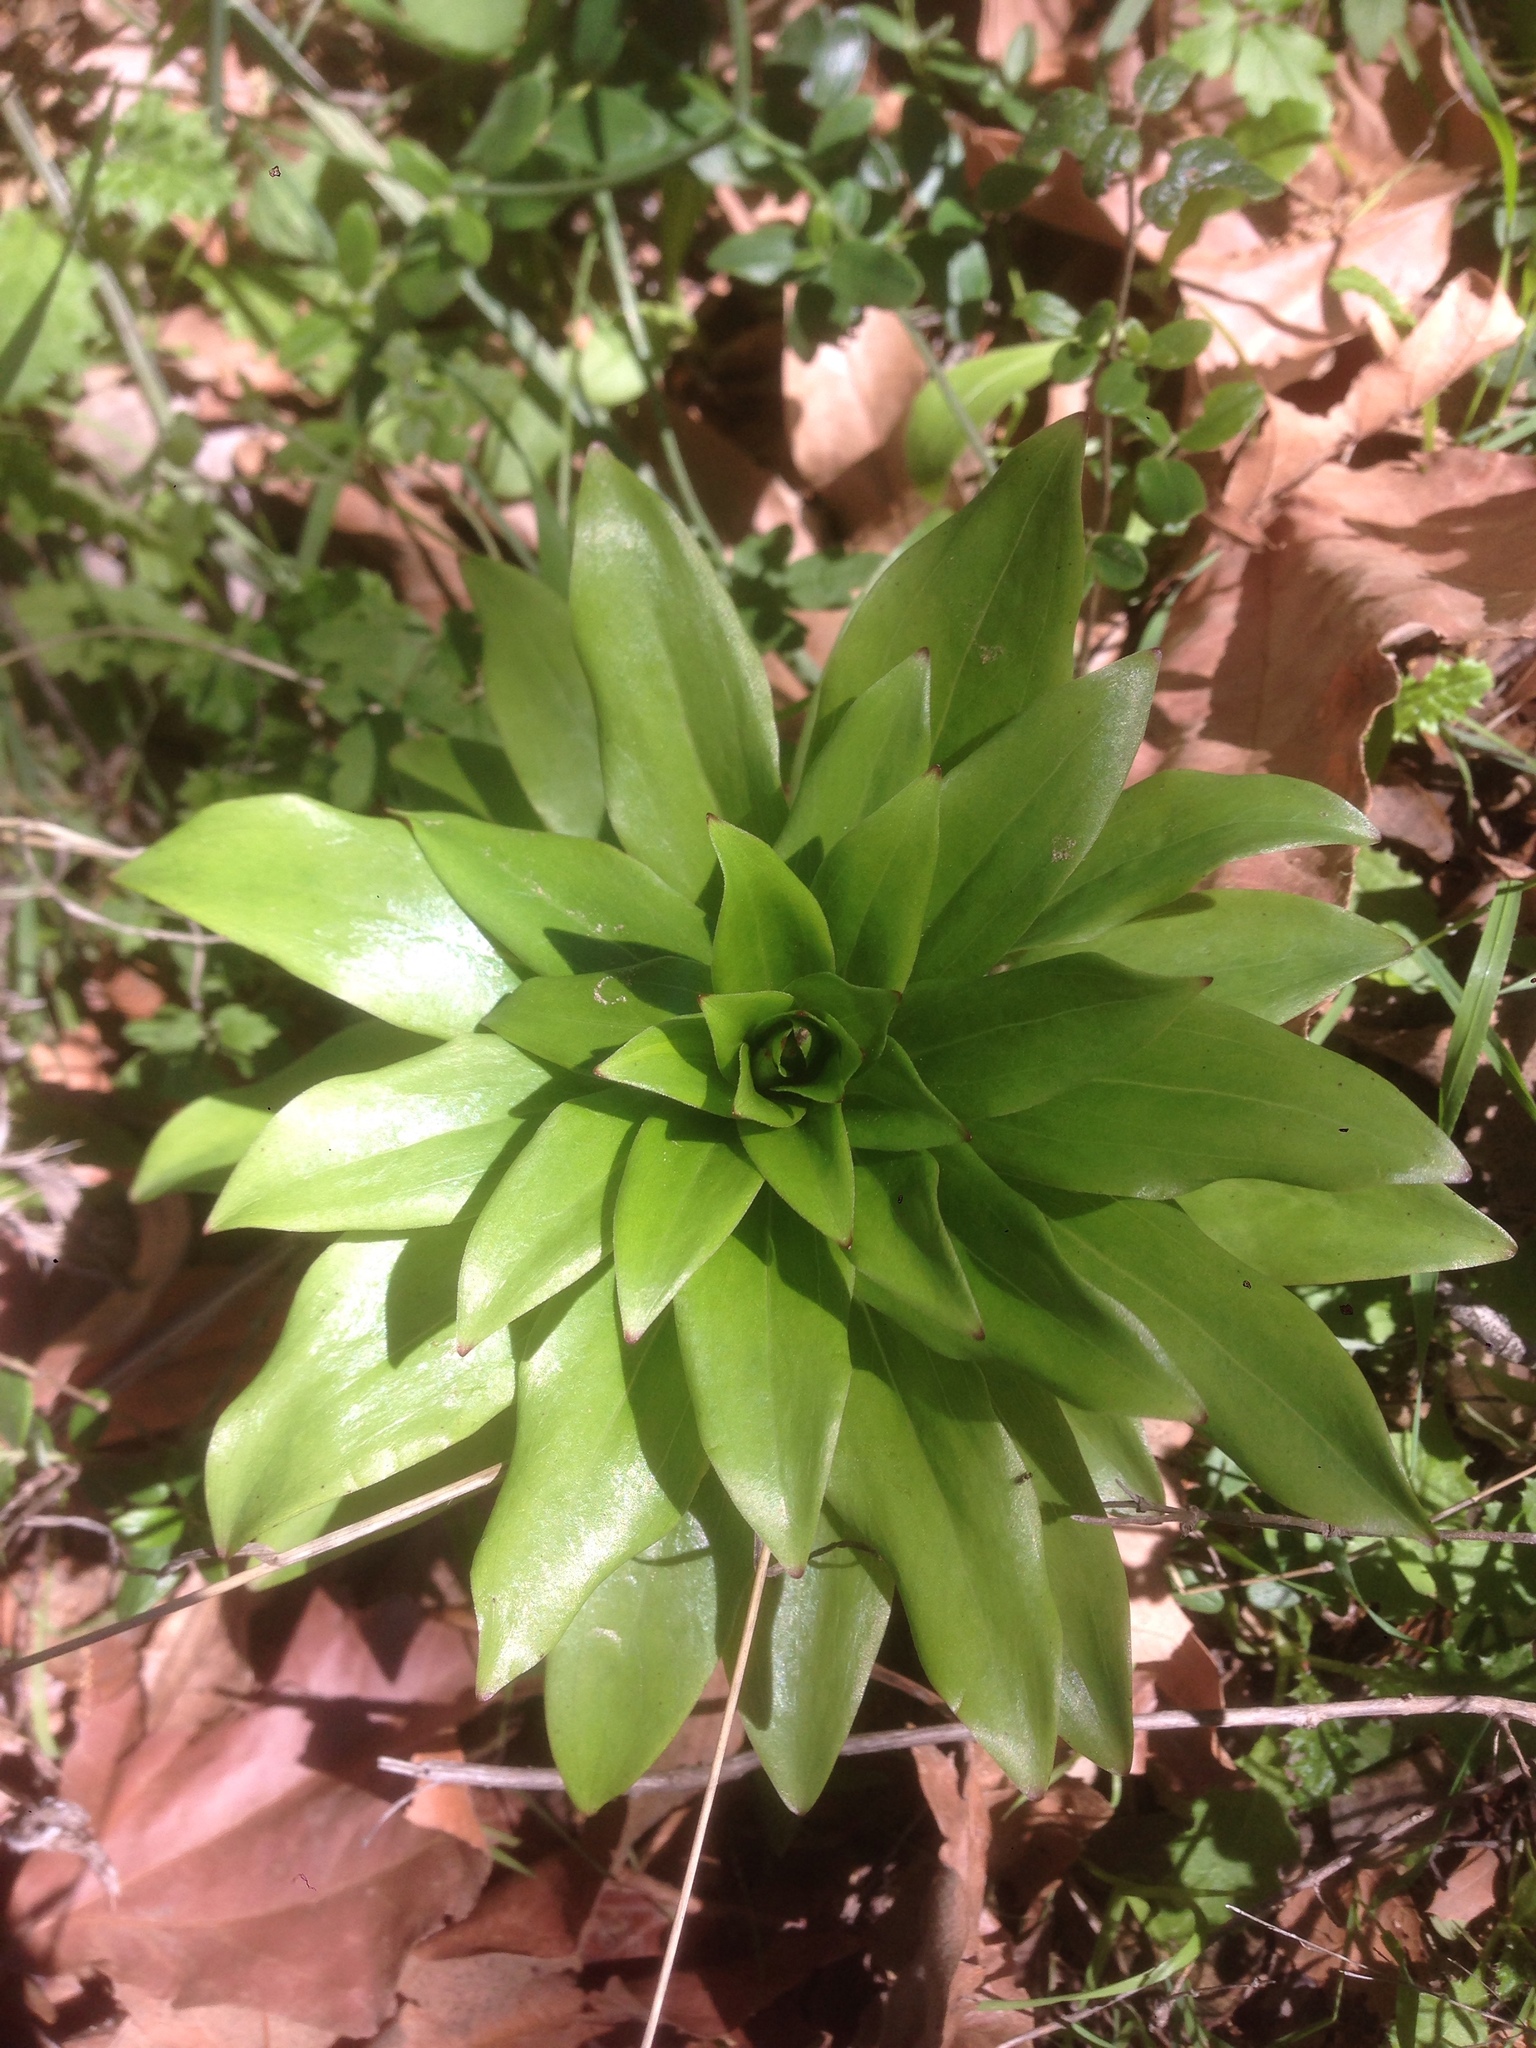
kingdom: Plantae
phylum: Tracheophyta
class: Liliopsida
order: Liliales
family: Liliaceae
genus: Lilium
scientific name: Lilium humboldtii
